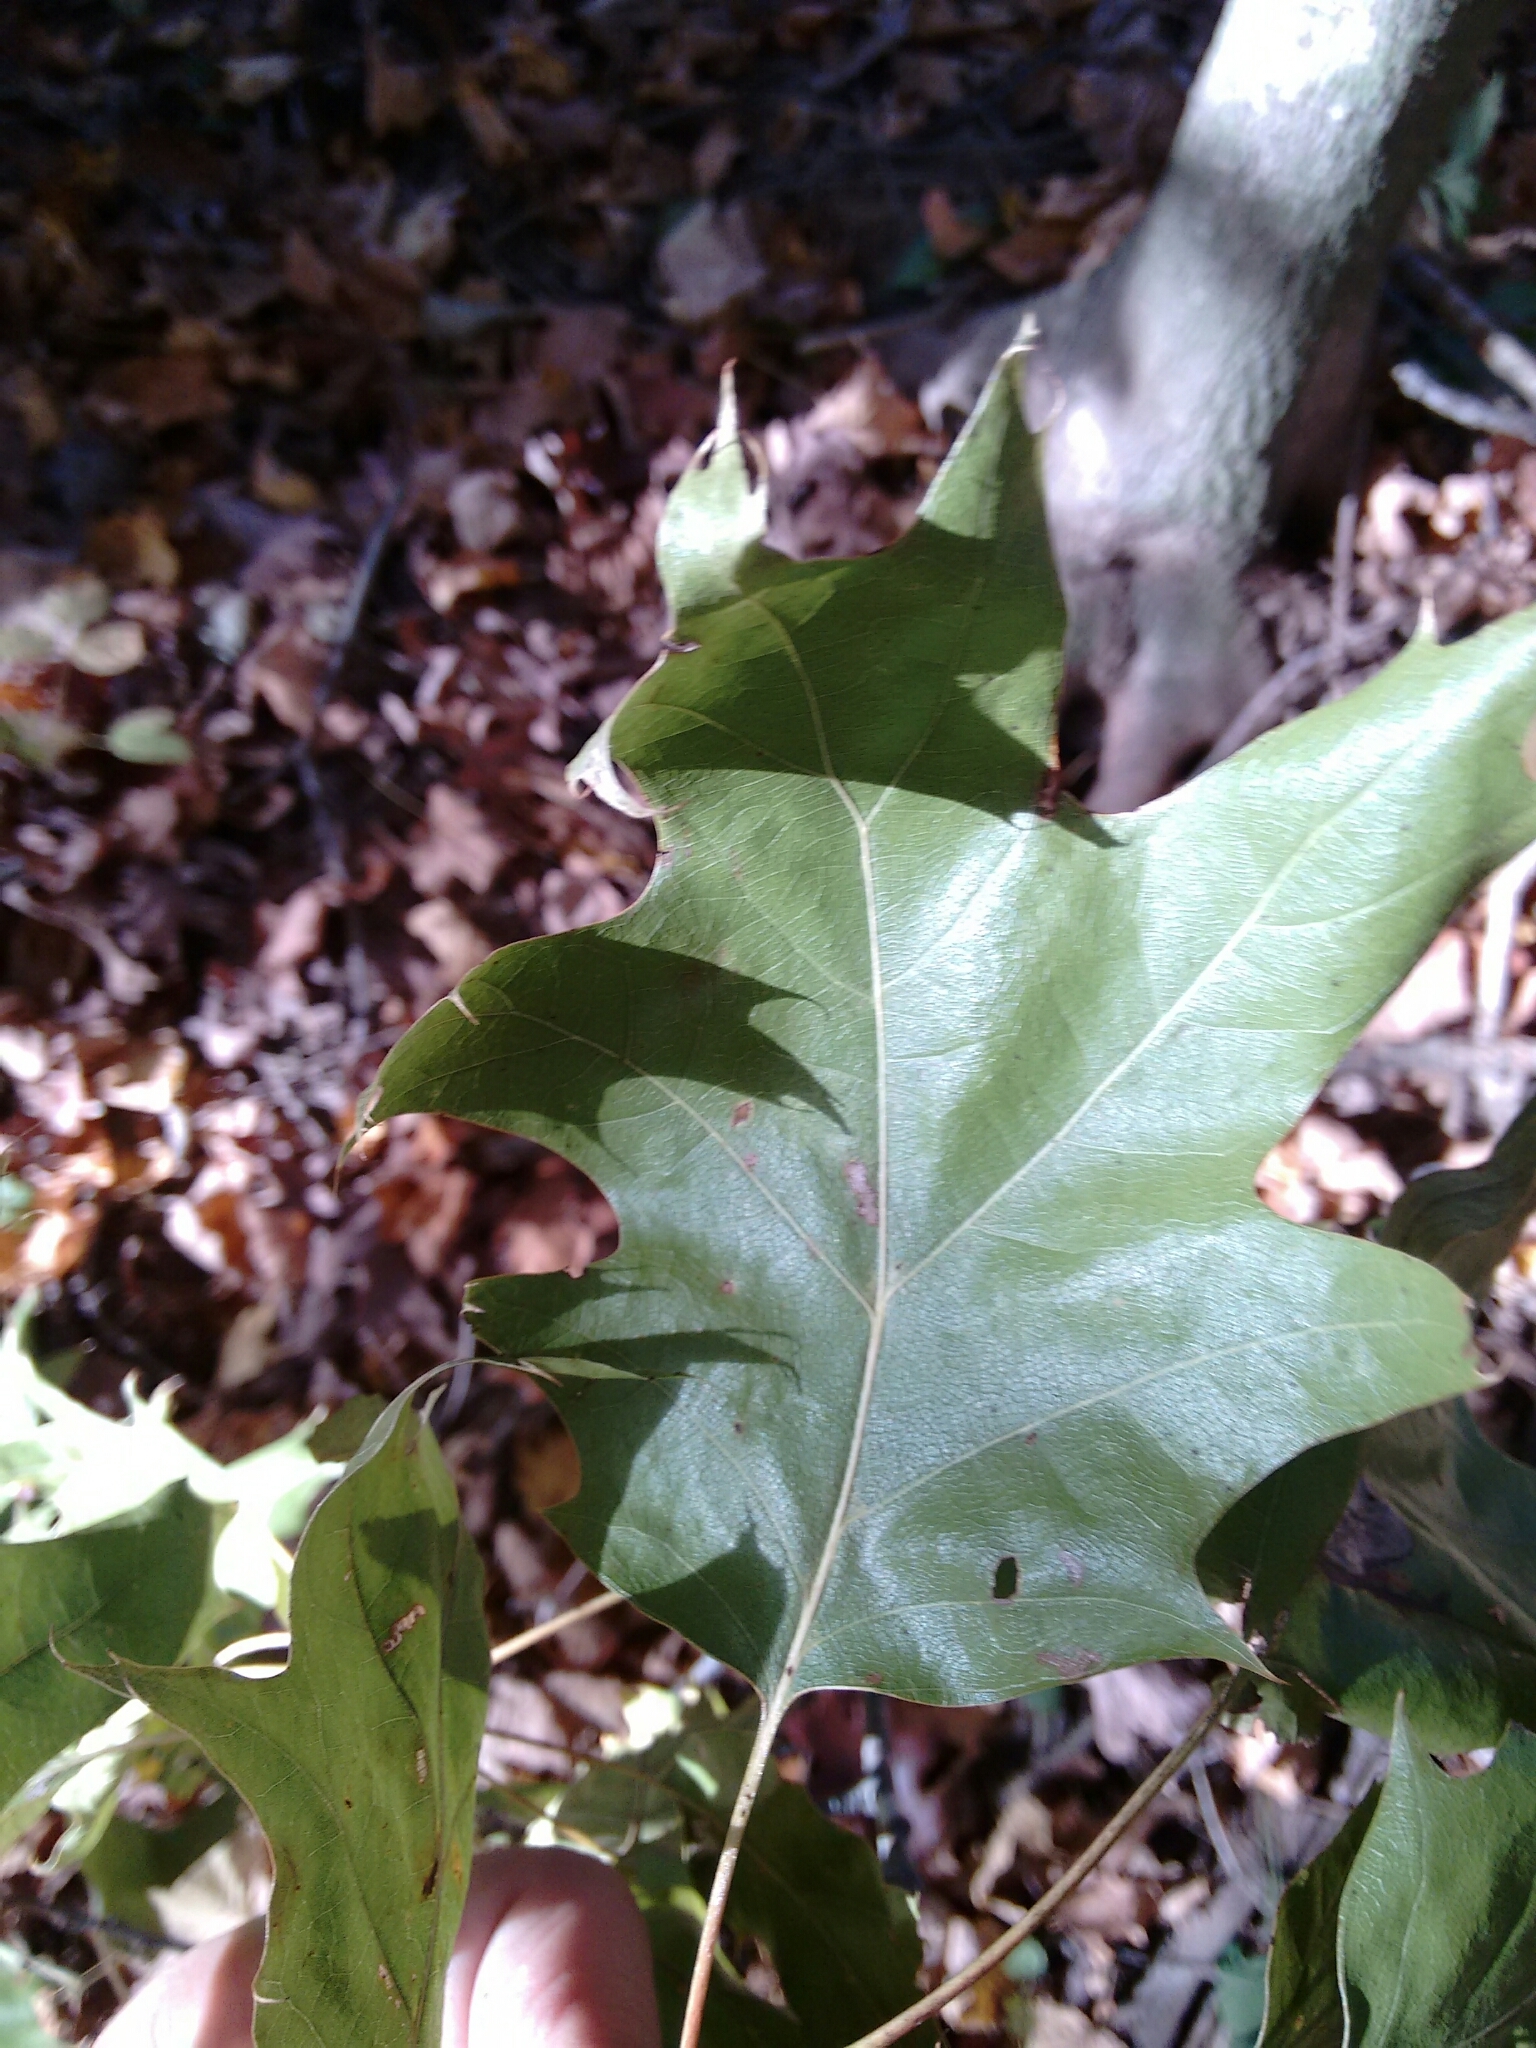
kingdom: Plantae
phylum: Tracheophyta
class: Magnoliopsida
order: Fagales
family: Fagaceae
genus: Quercus
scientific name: Quercus velutina
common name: Black oak
